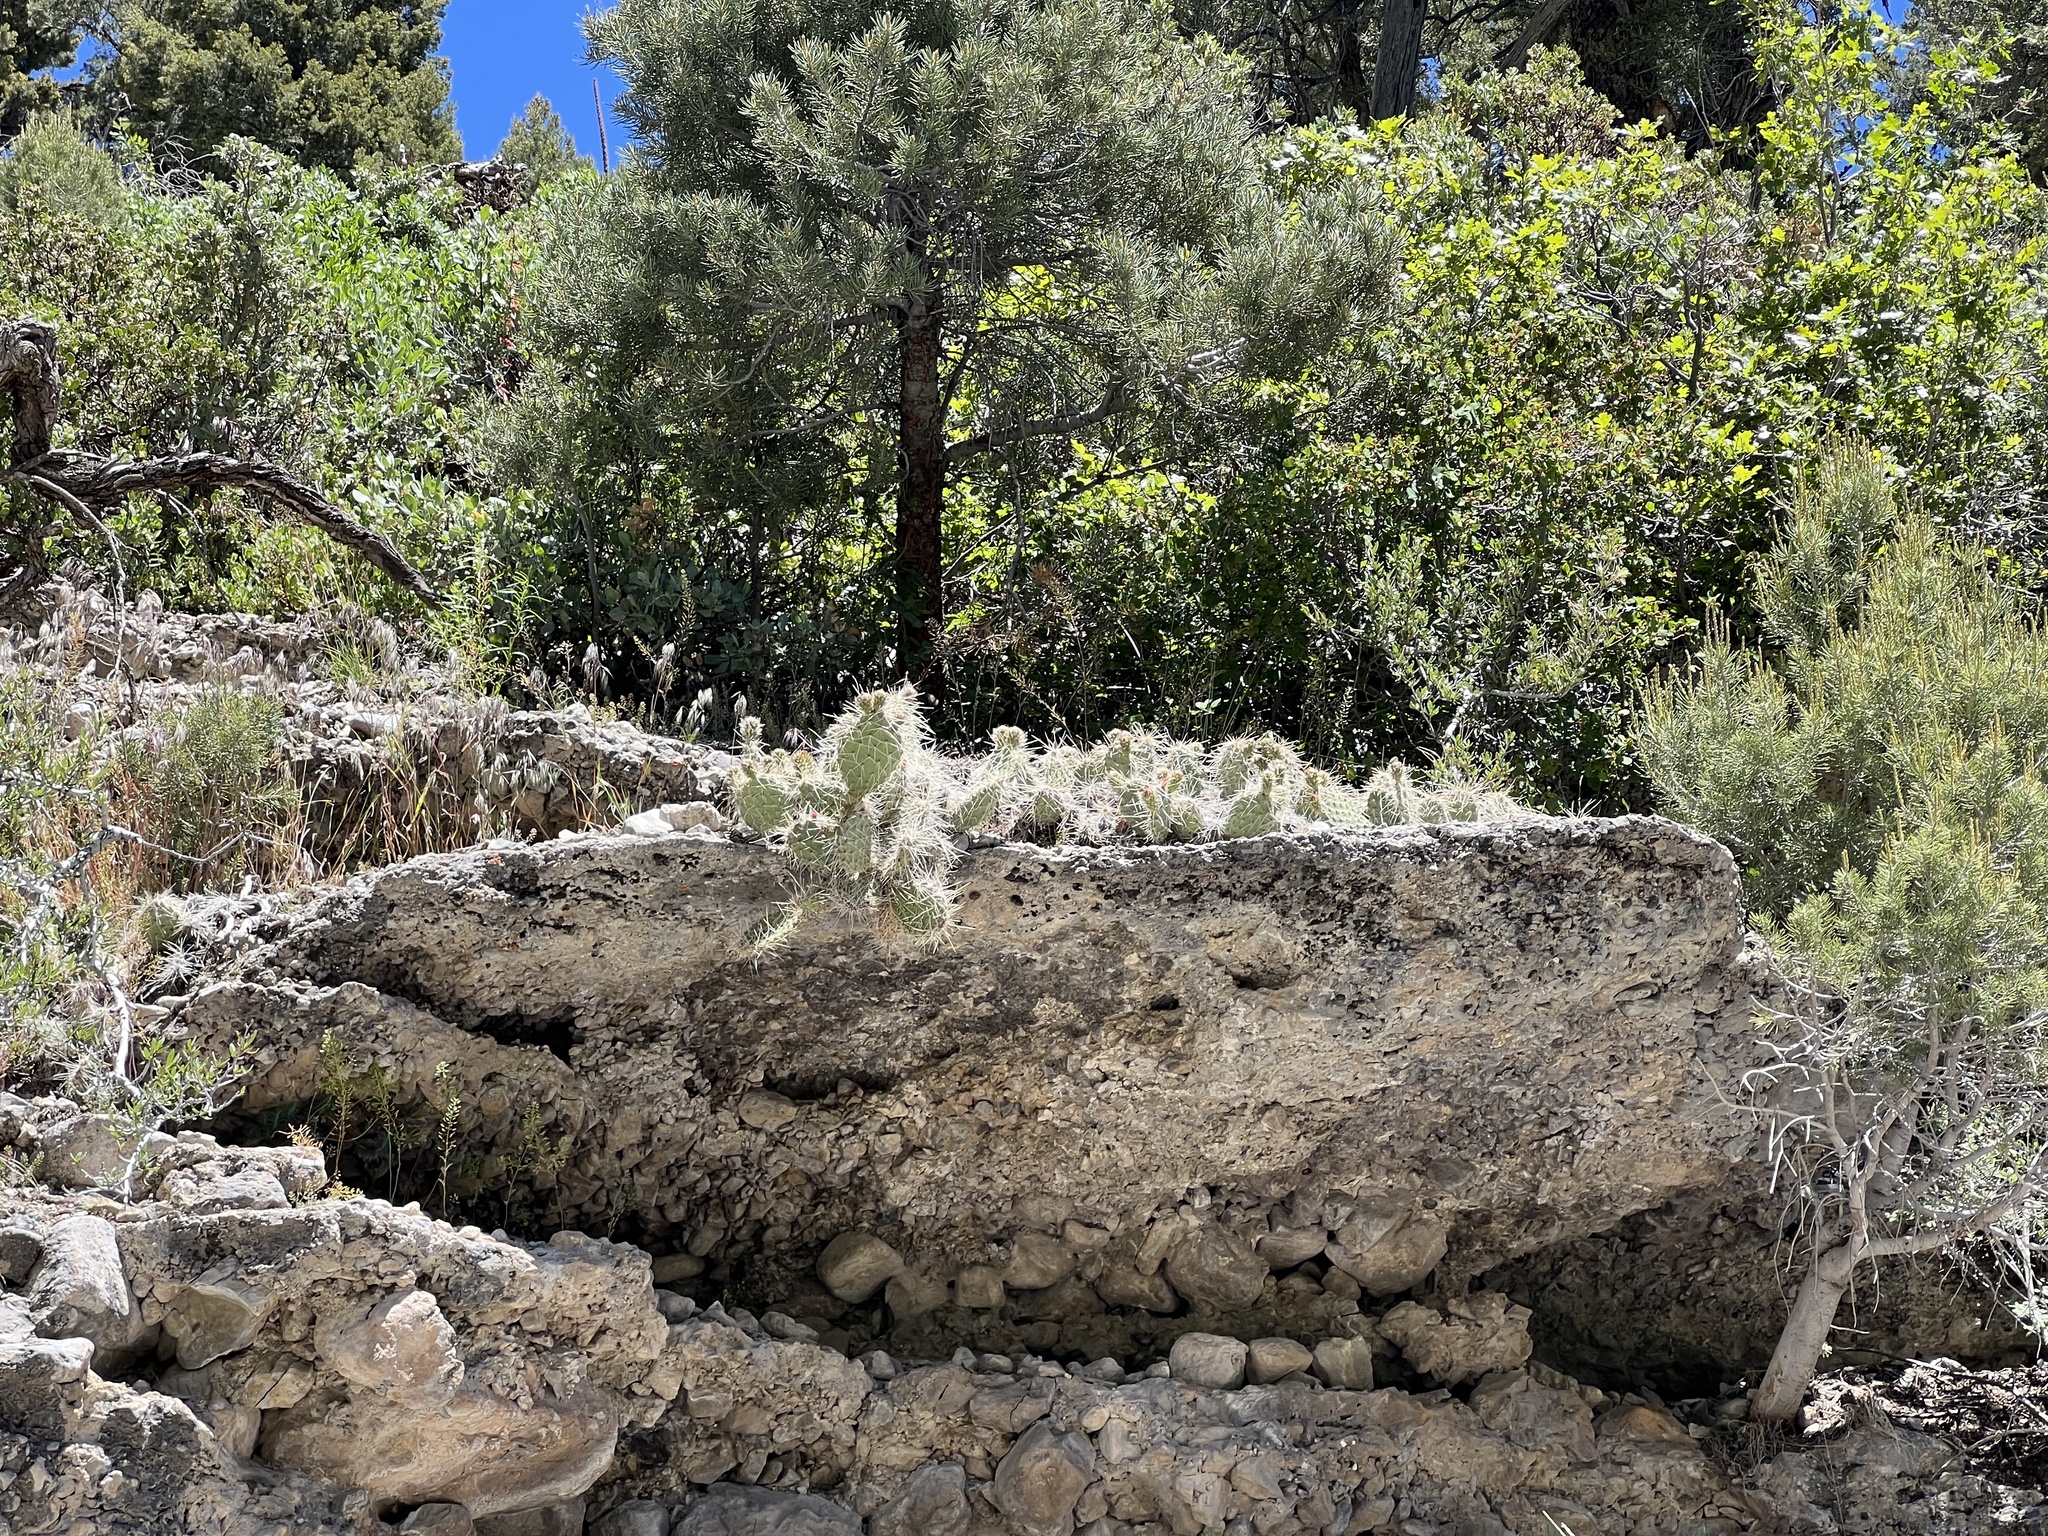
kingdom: Plantae
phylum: Tracheophyta
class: Magnoliopsida
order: Caryophyllales
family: Cactaceae
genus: Opuntia
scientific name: Opuntia polyacantha
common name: Plains prickly-pear
